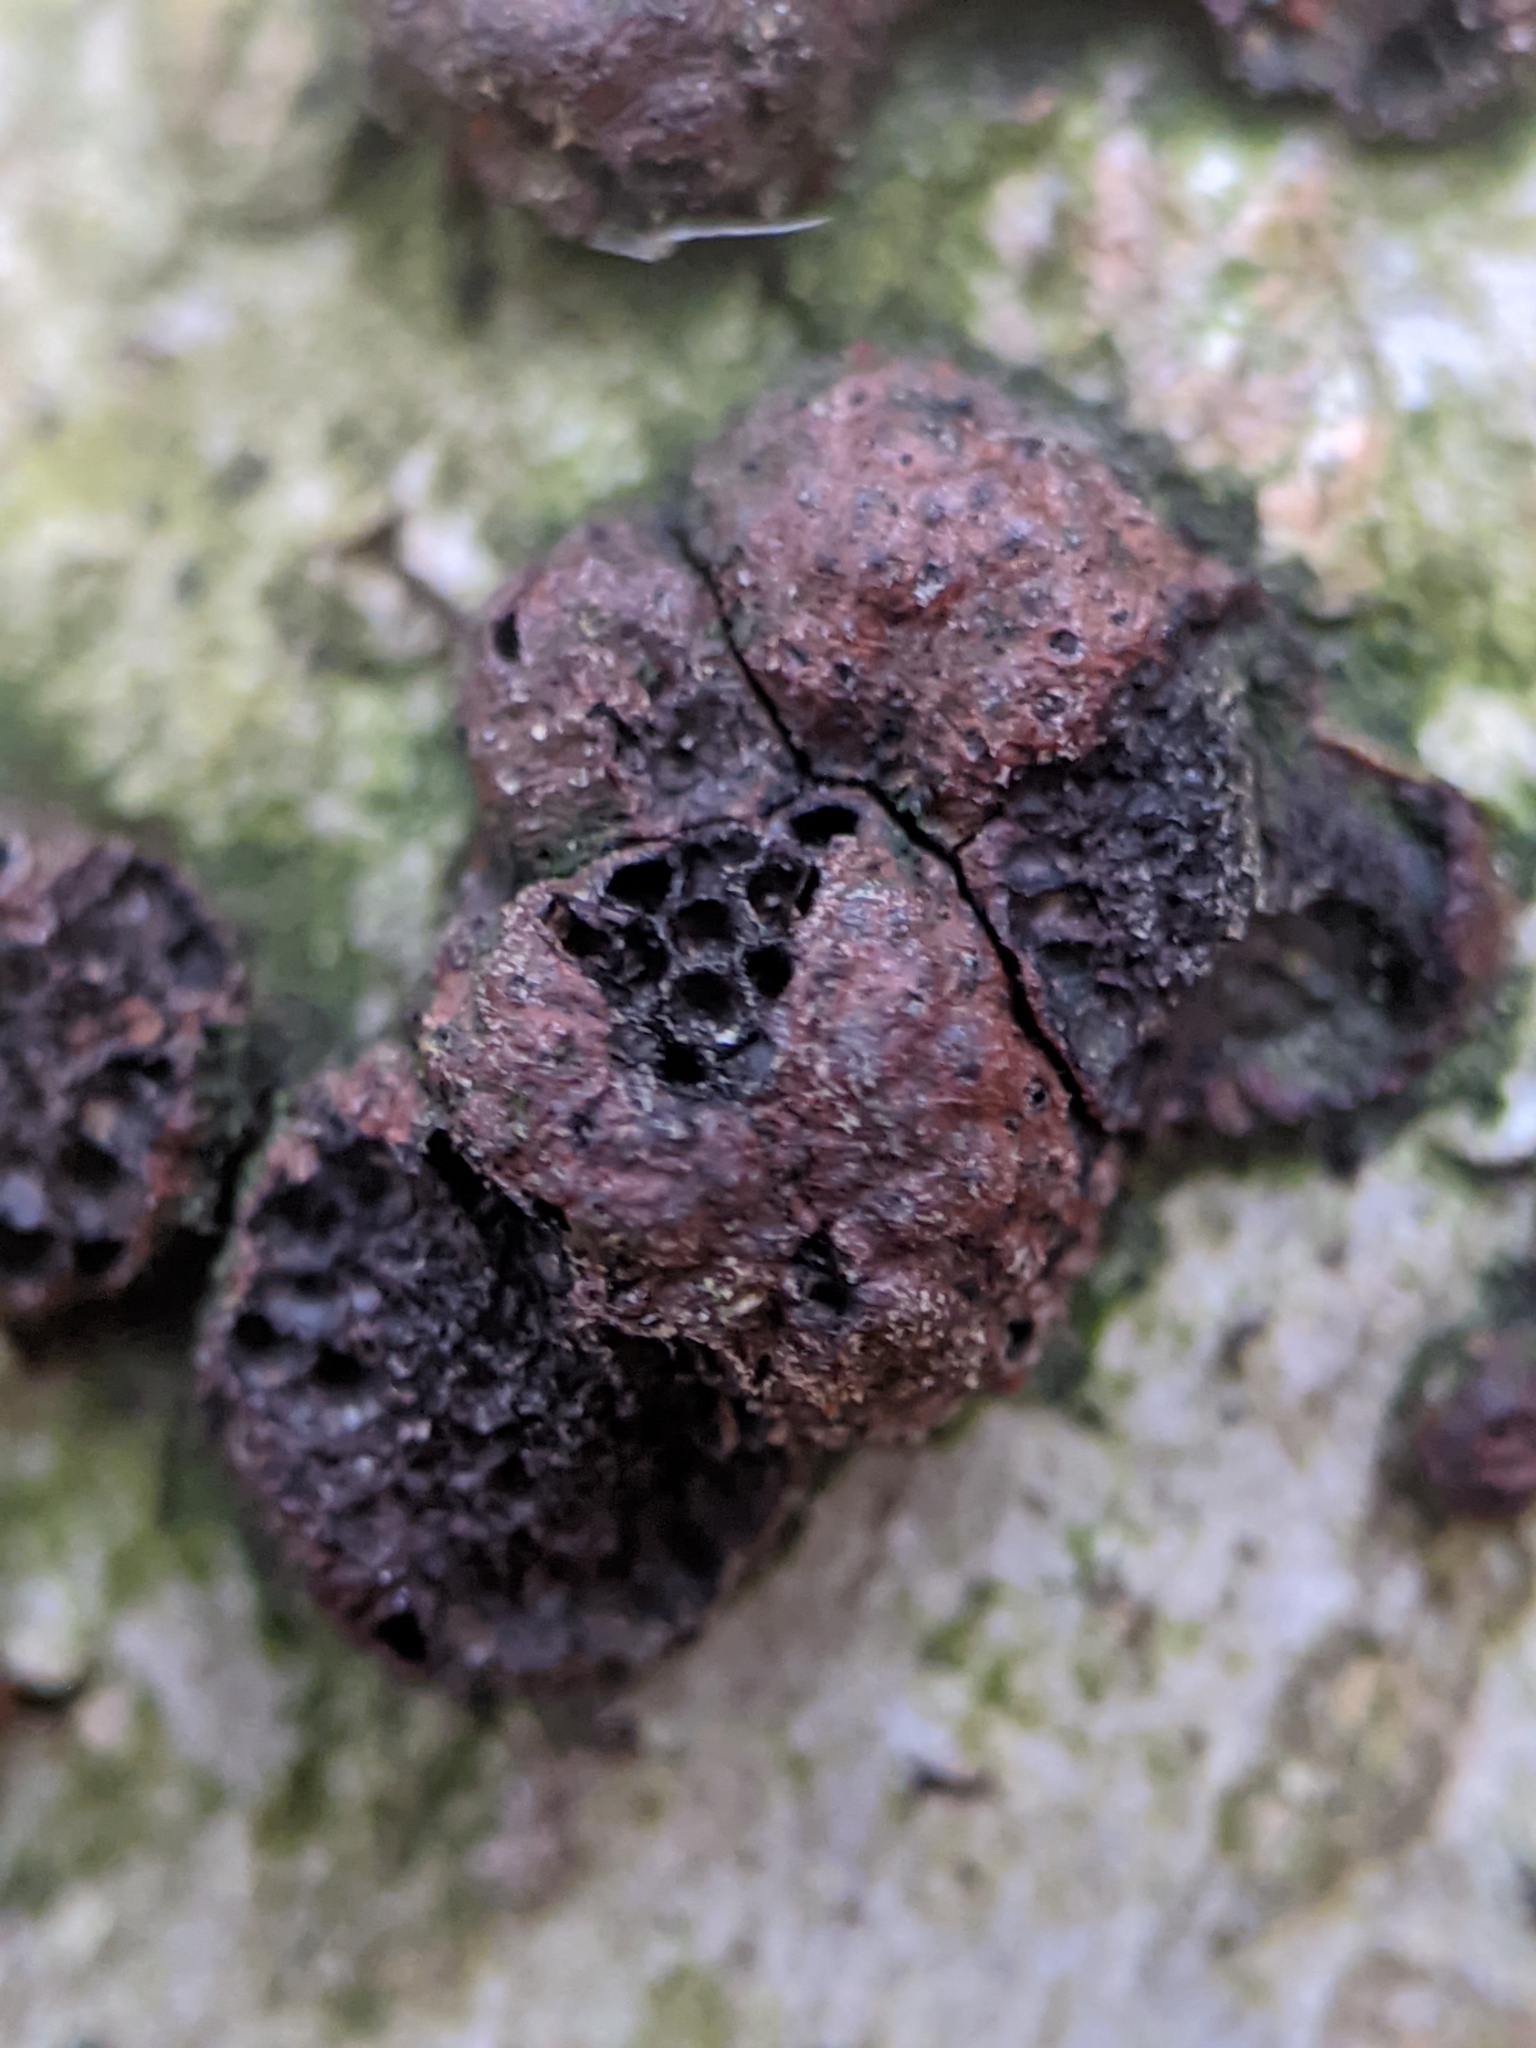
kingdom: Fungi
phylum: Ascomycota
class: Sordariomycetes
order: Xylariales
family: Hypoxylaceae
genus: Hypoxylon
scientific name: Hypoxylon fragiforme
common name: Beech woodwart
